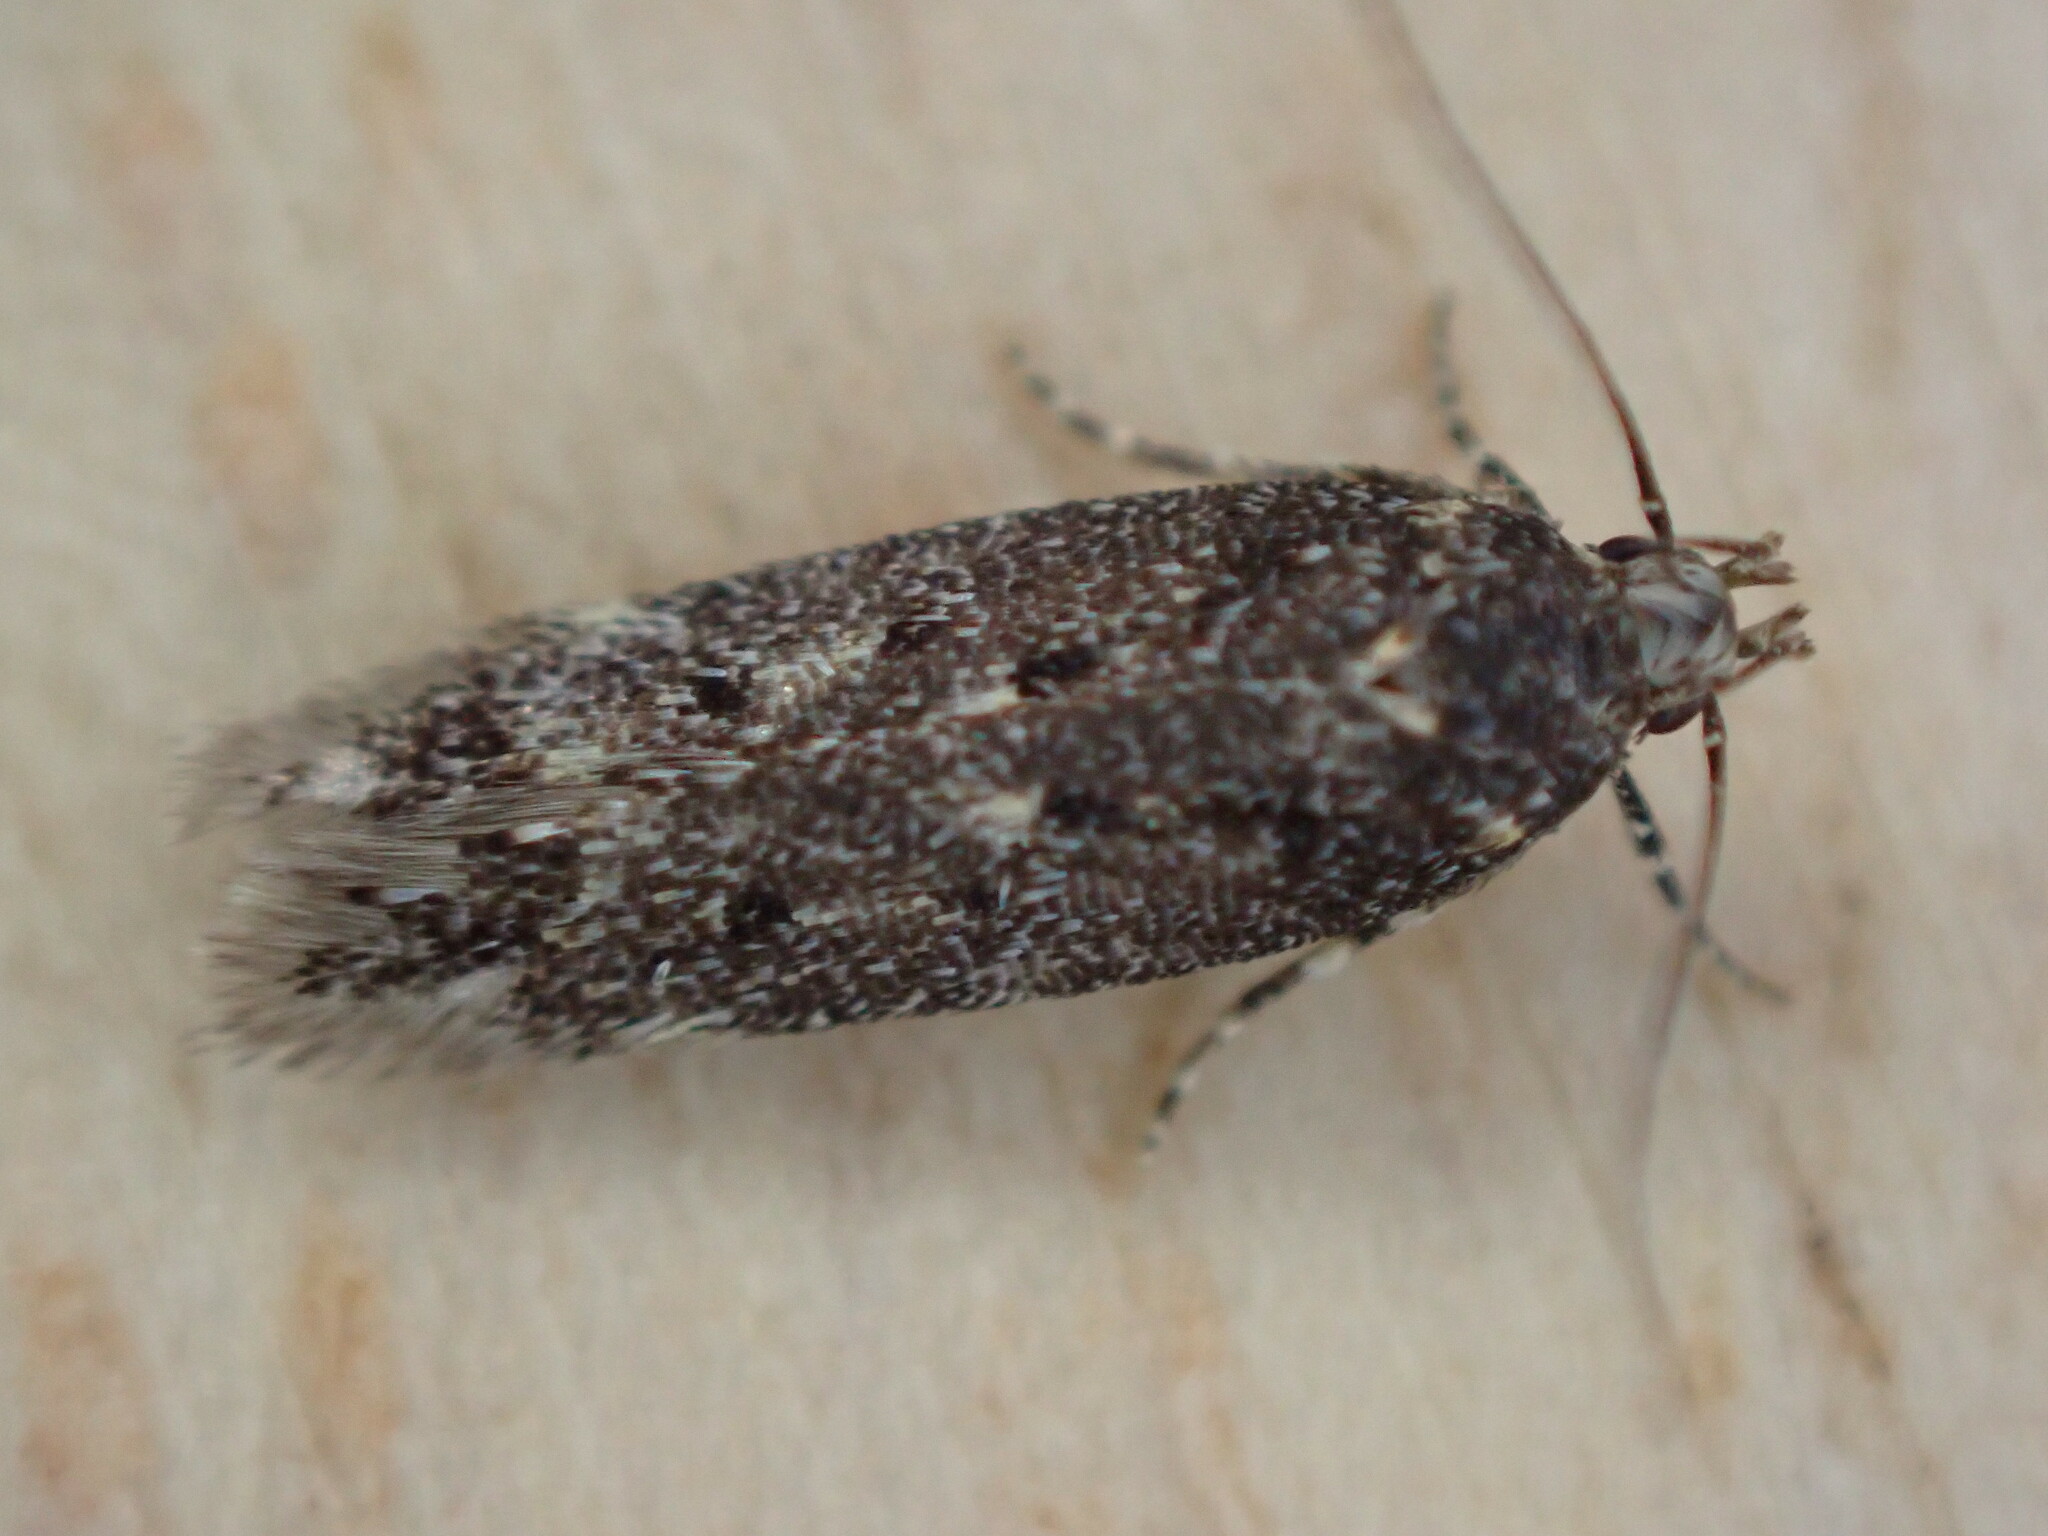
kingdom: Animalia
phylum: Arthropoda
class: Insecta
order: Lepidoptera
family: Gelechiidae
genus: Bryotropha
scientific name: Bryotropha affinis
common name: Dark groundling
